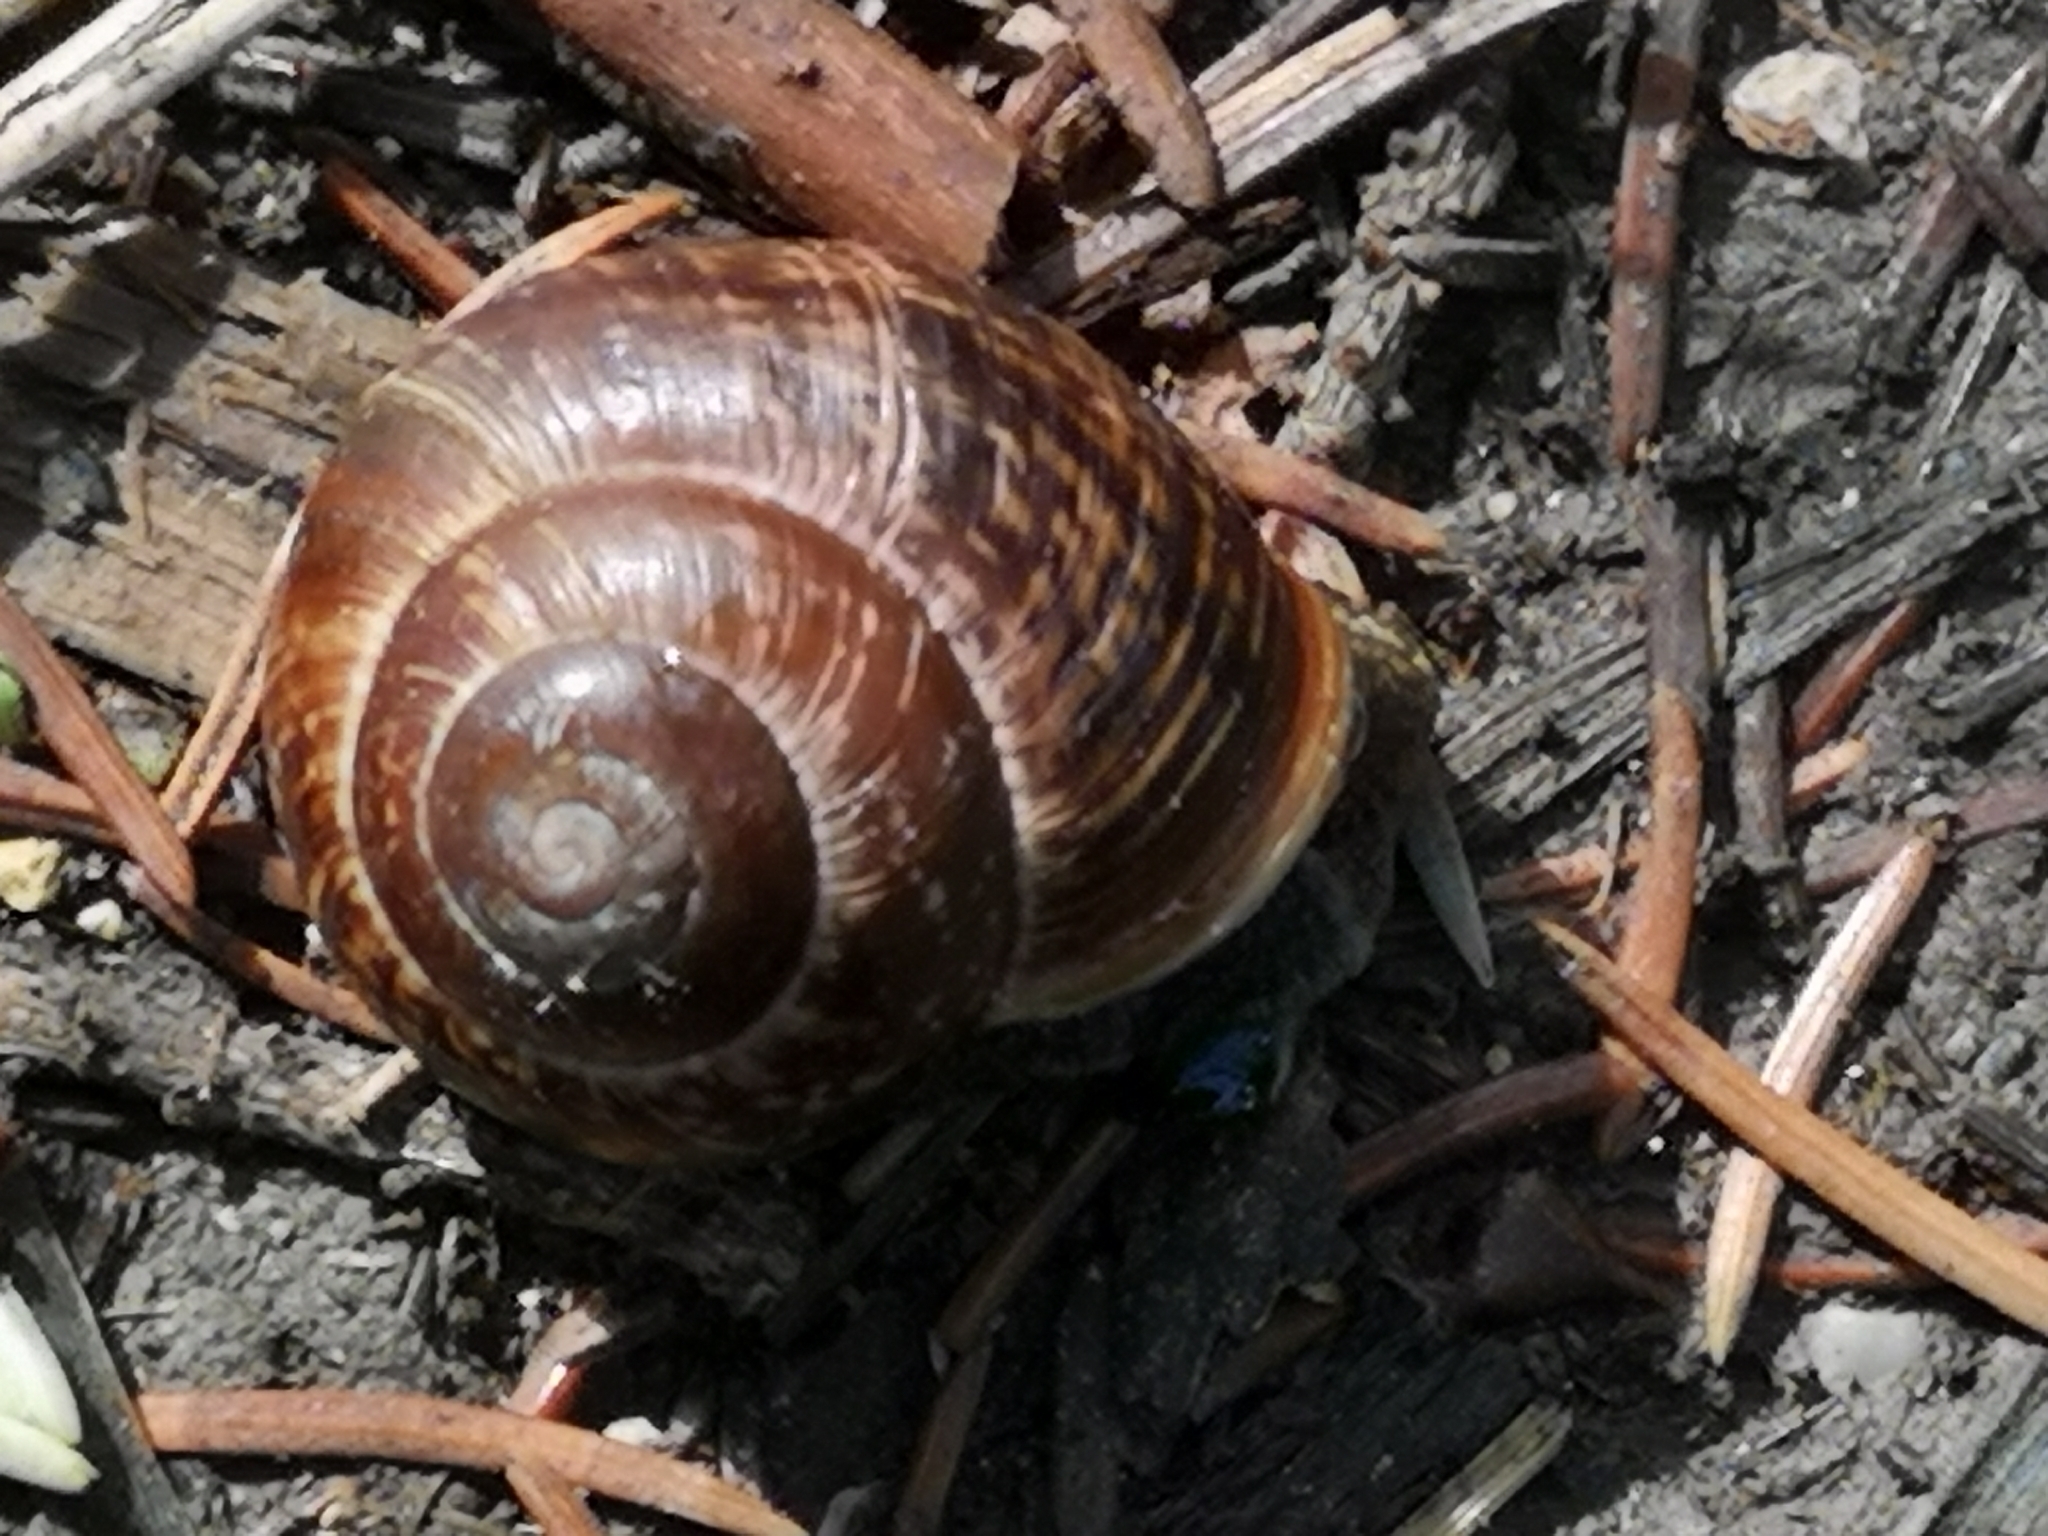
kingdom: Animalia
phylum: Mollusca
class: Gastropoda
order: Stylommatophora
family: Helicidae
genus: Arianta
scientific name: Arianta arbustorum
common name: Copse snail
